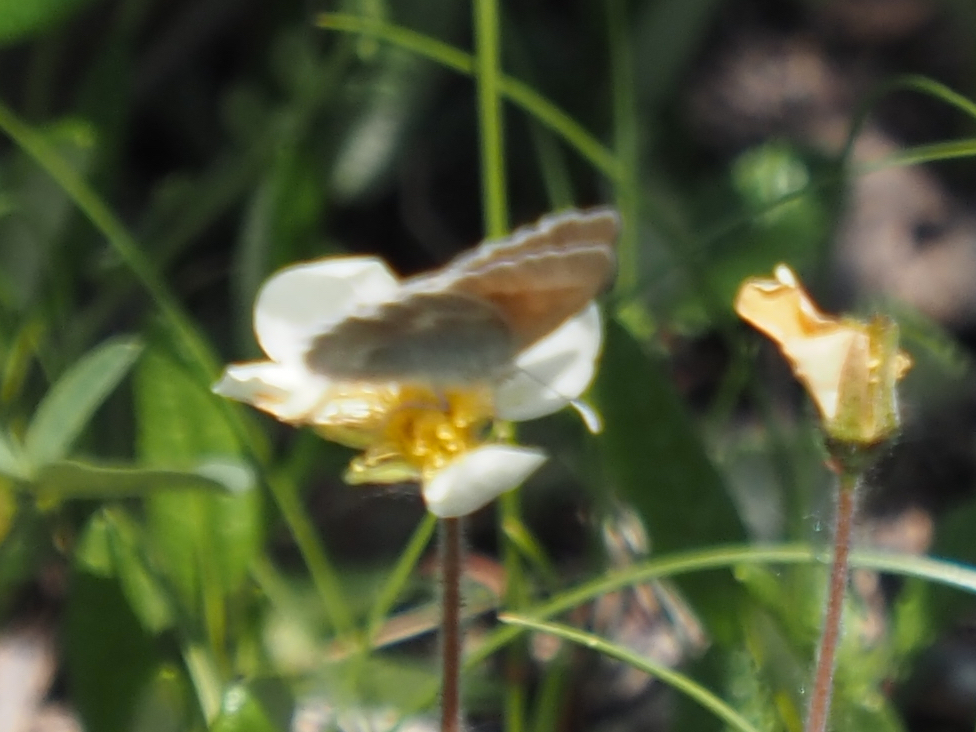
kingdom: Animalia
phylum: Arthropoda
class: Insecta
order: Lepidoptera
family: Nymphalidae
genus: Coenonympha
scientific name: Coenonympha tullia
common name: Large heath
